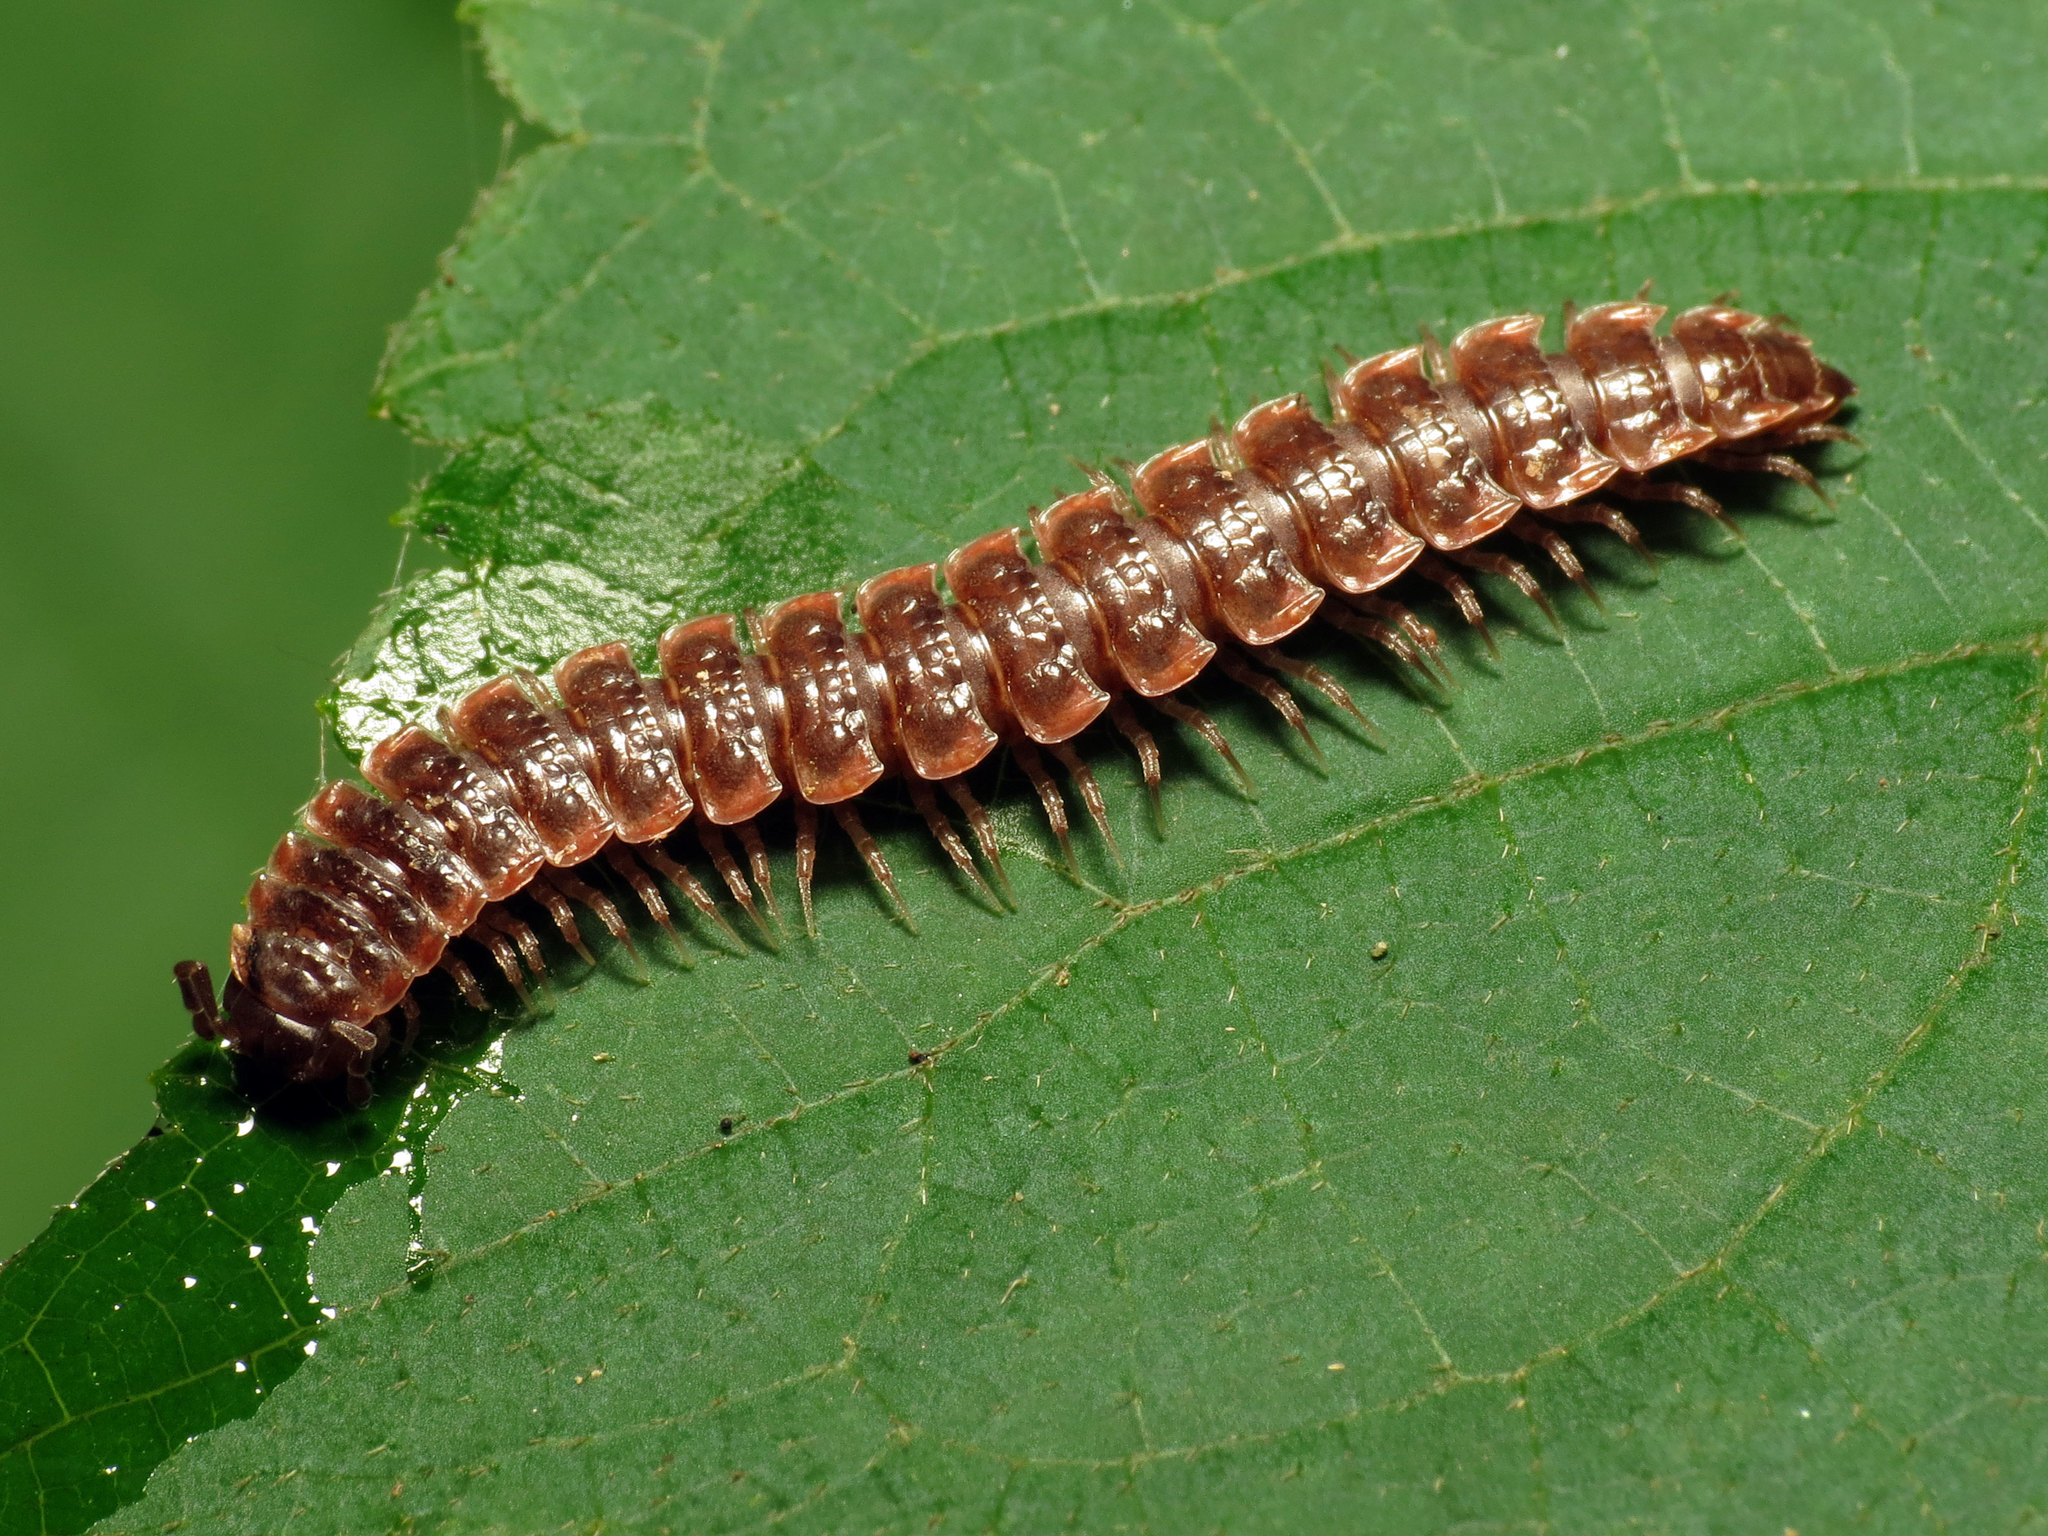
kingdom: Animalia
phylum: Arthropoda
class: Diplopoda
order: Polydesmida
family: Polydesmidae
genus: Pseudopolydesmus
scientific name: Pseudopolydesmus serratus
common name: Common pink flat-back millipede
